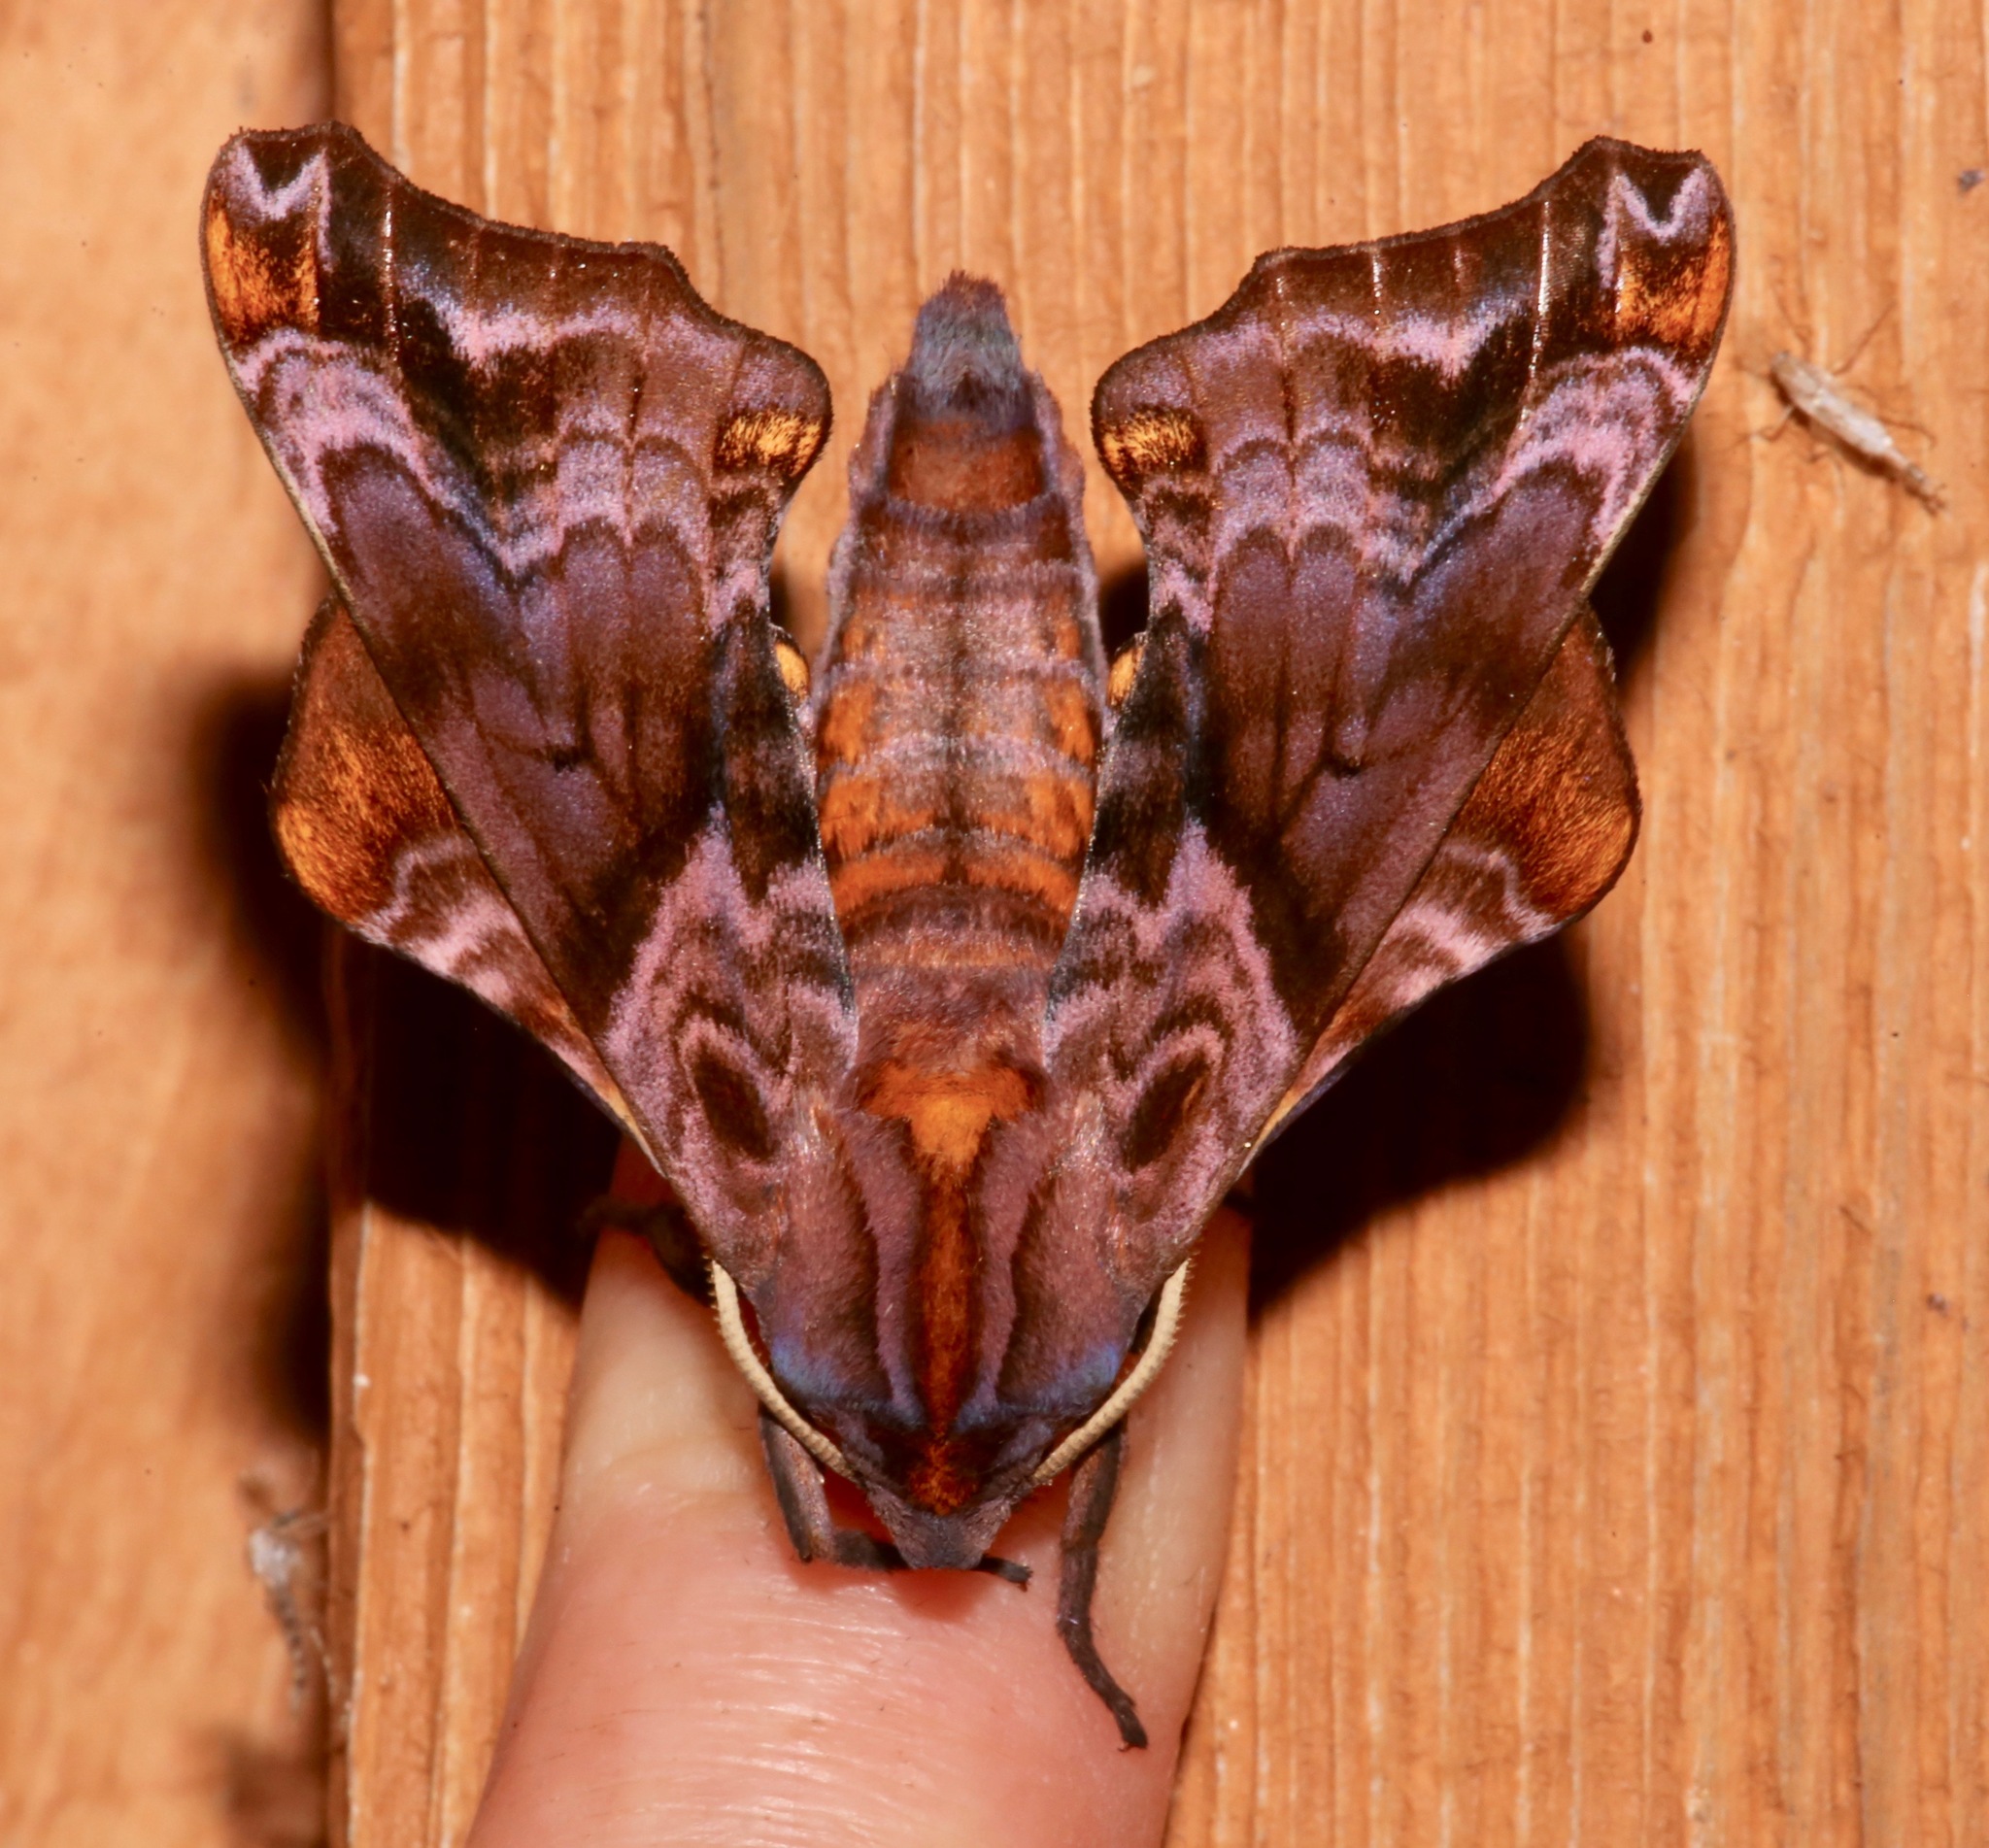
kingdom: Animalia
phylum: Arthropoda
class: Insecta
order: Lepidoptera
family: Sphingidae
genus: Paonias
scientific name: Paonias myops
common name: Small-eyed sphinx
